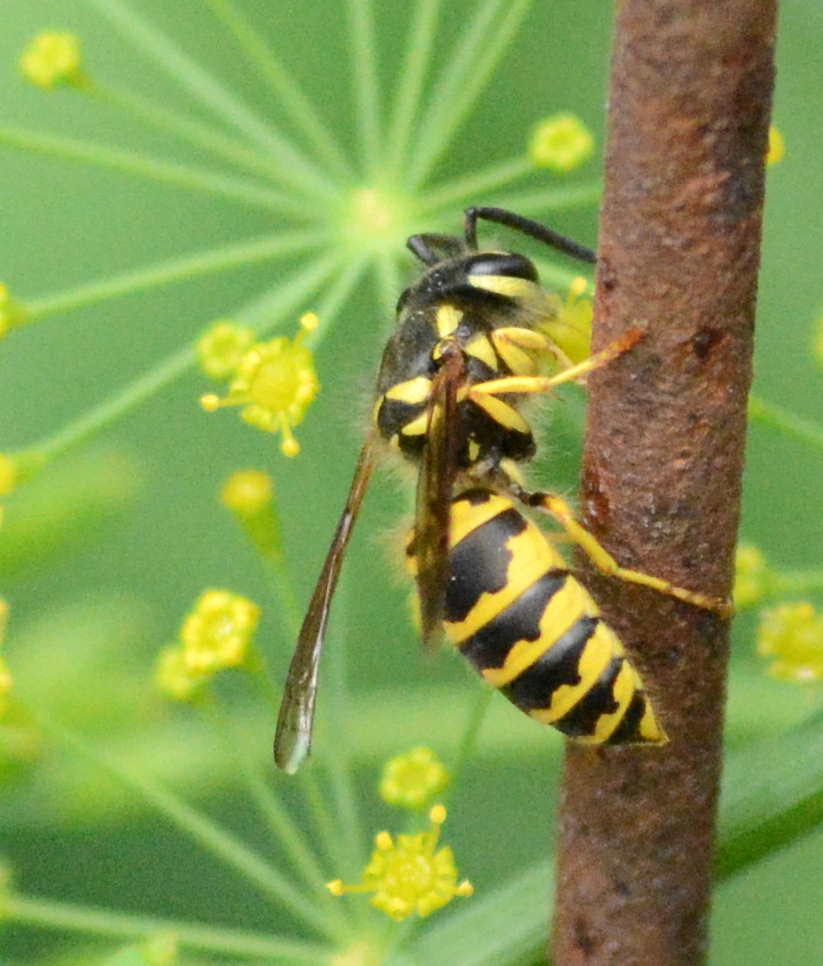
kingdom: Animalia
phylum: Arthropoda
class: Insecta
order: Hymenoptera
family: Vespidae
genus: Vespula
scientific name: Vespula maculifrons
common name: Eastern yellowjacket
